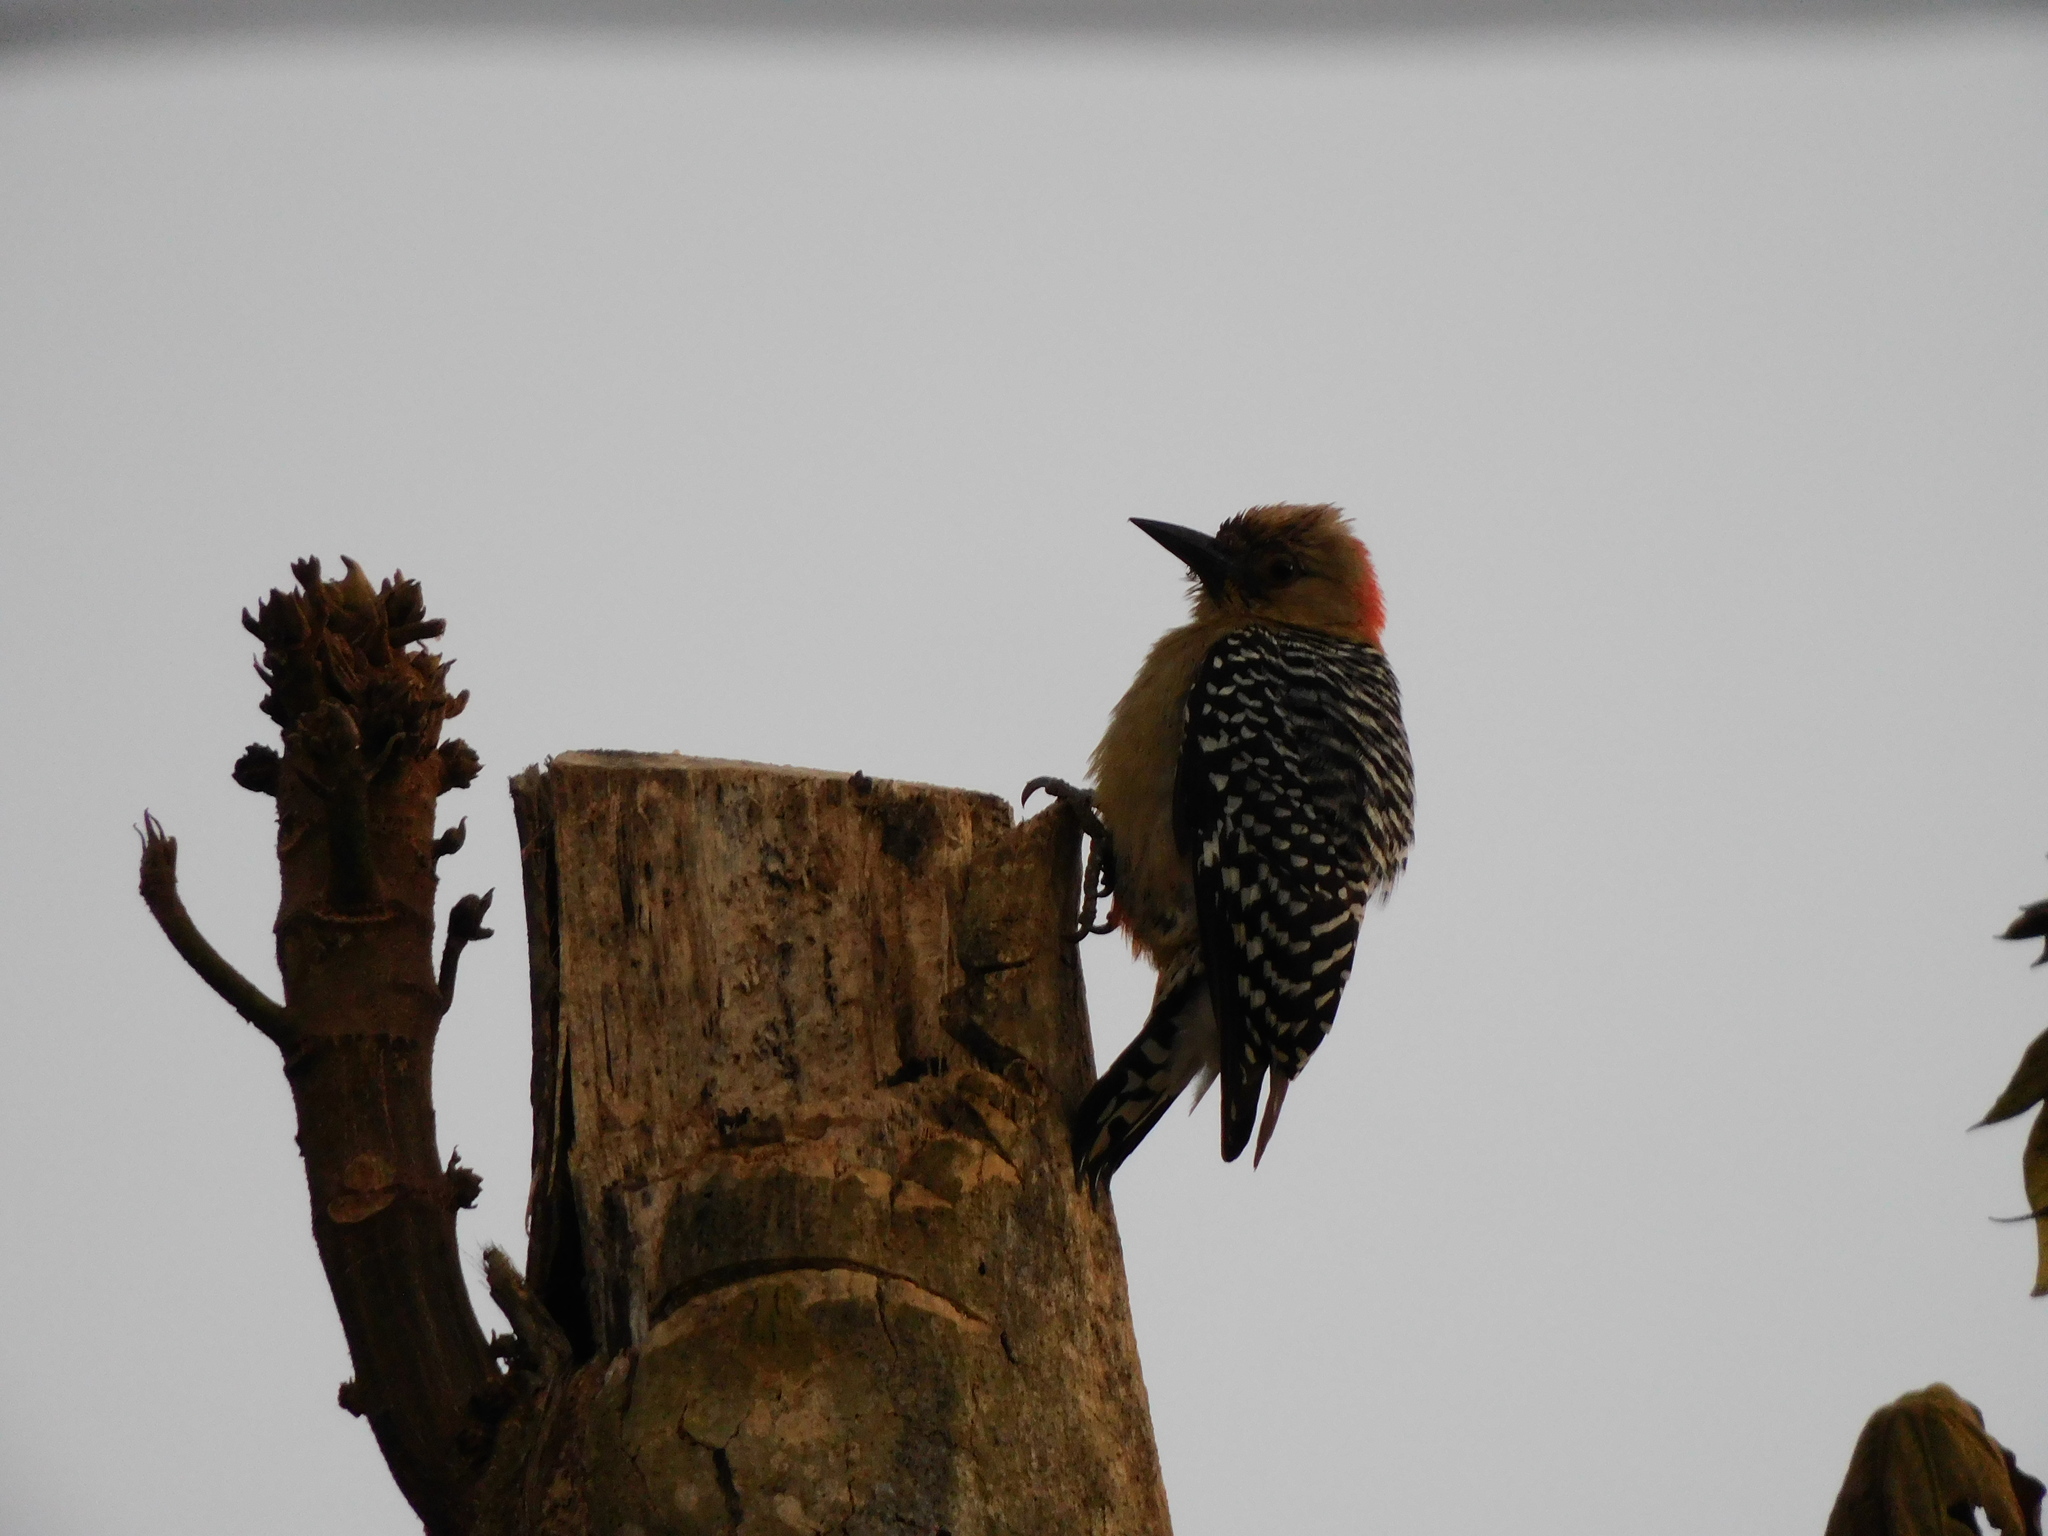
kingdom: Animalia
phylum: Chordata
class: Aves
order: Piciformes
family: Picidae
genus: Melanerpes
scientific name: Melanerpes rubricapillus
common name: Red-crowned woodpecker
